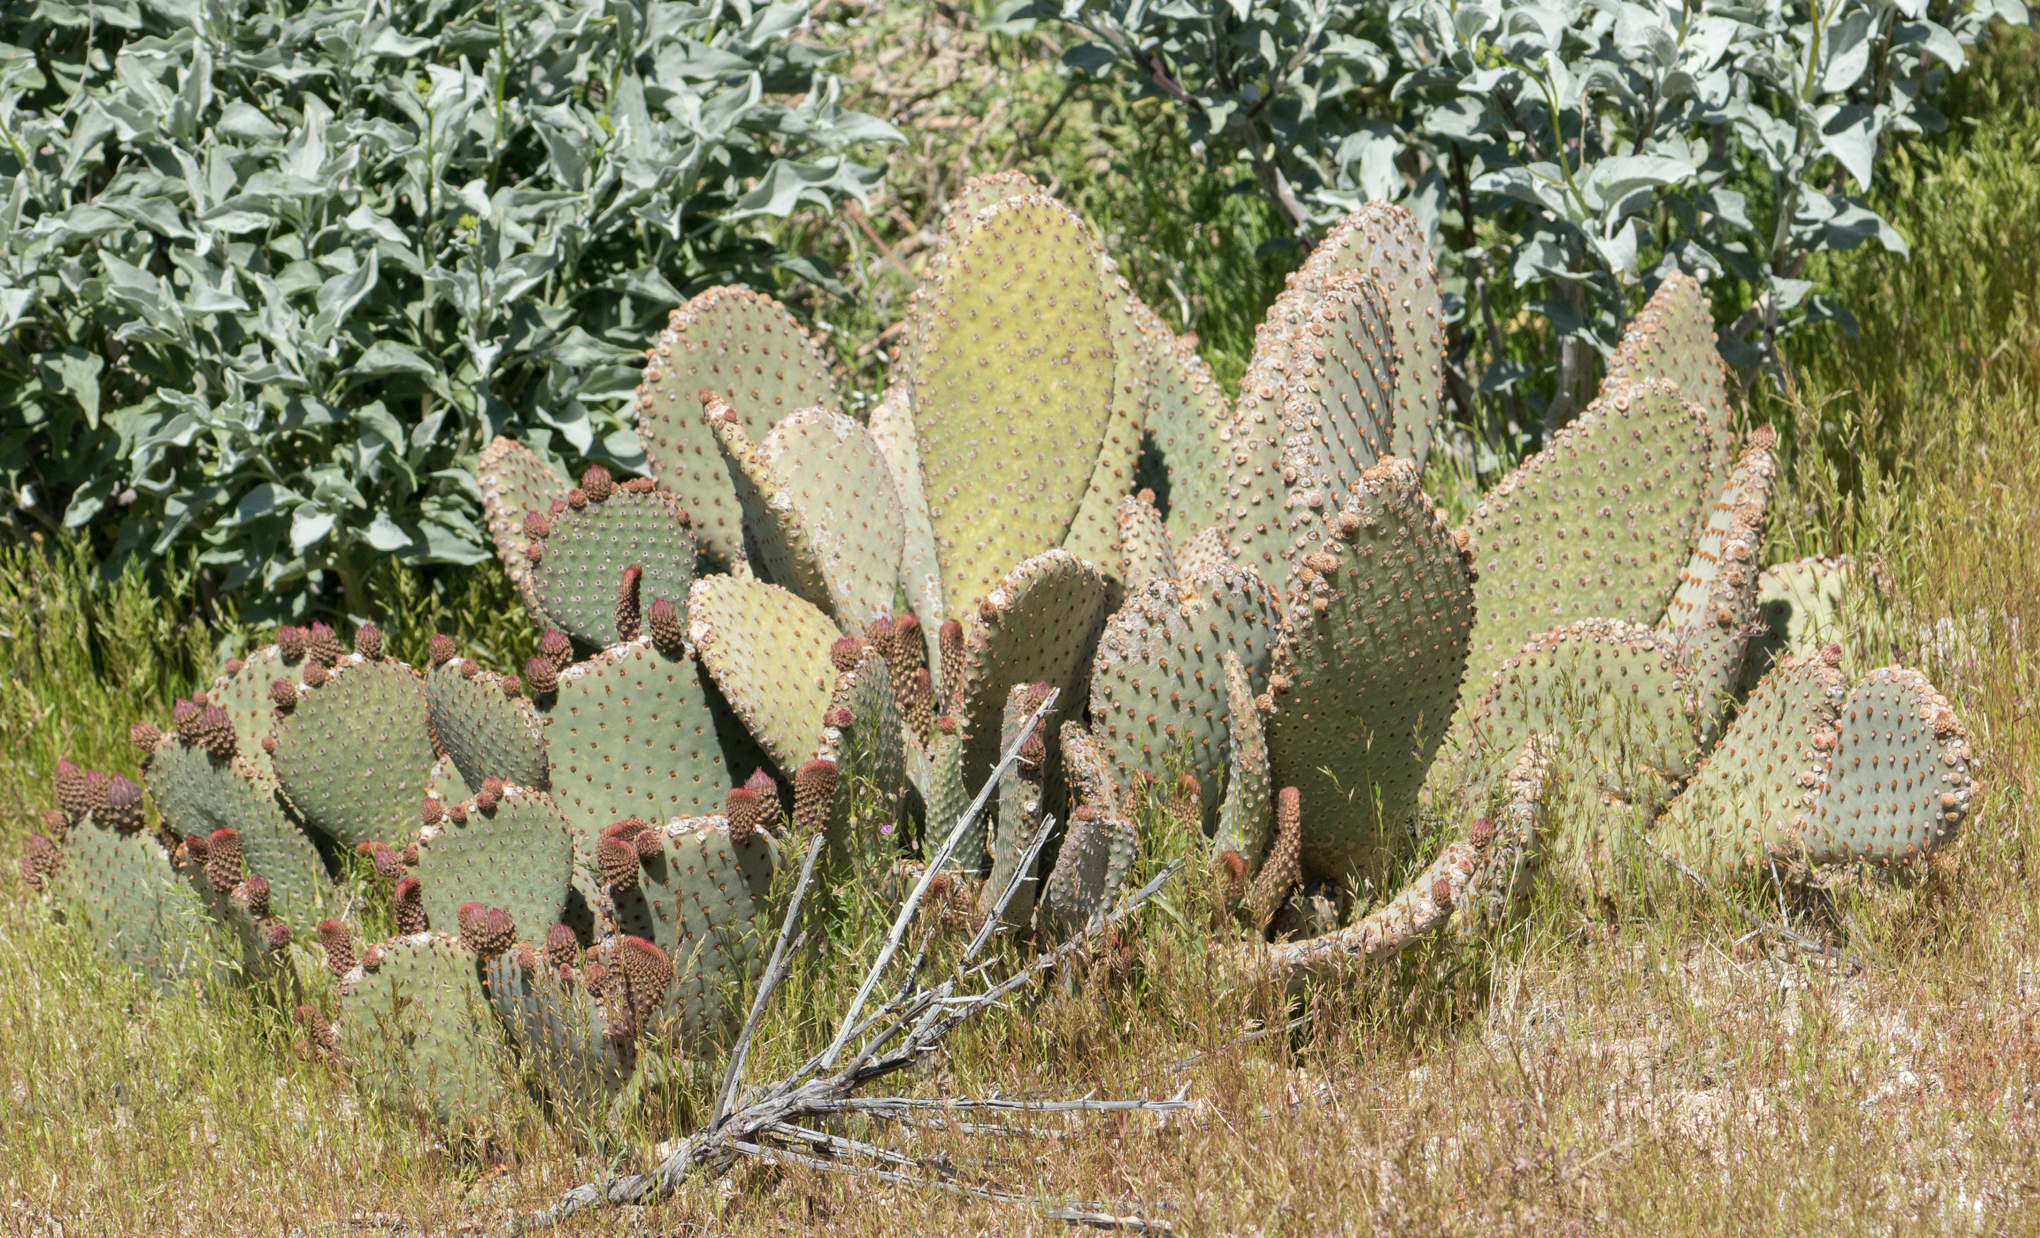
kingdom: Plantae
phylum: Tracheophyta
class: Magnoliopsida
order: Caryophyllales
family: Cactaceae
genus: Opuntia
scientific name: Opuntia basilaris
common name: Beavertail prickly-pear
